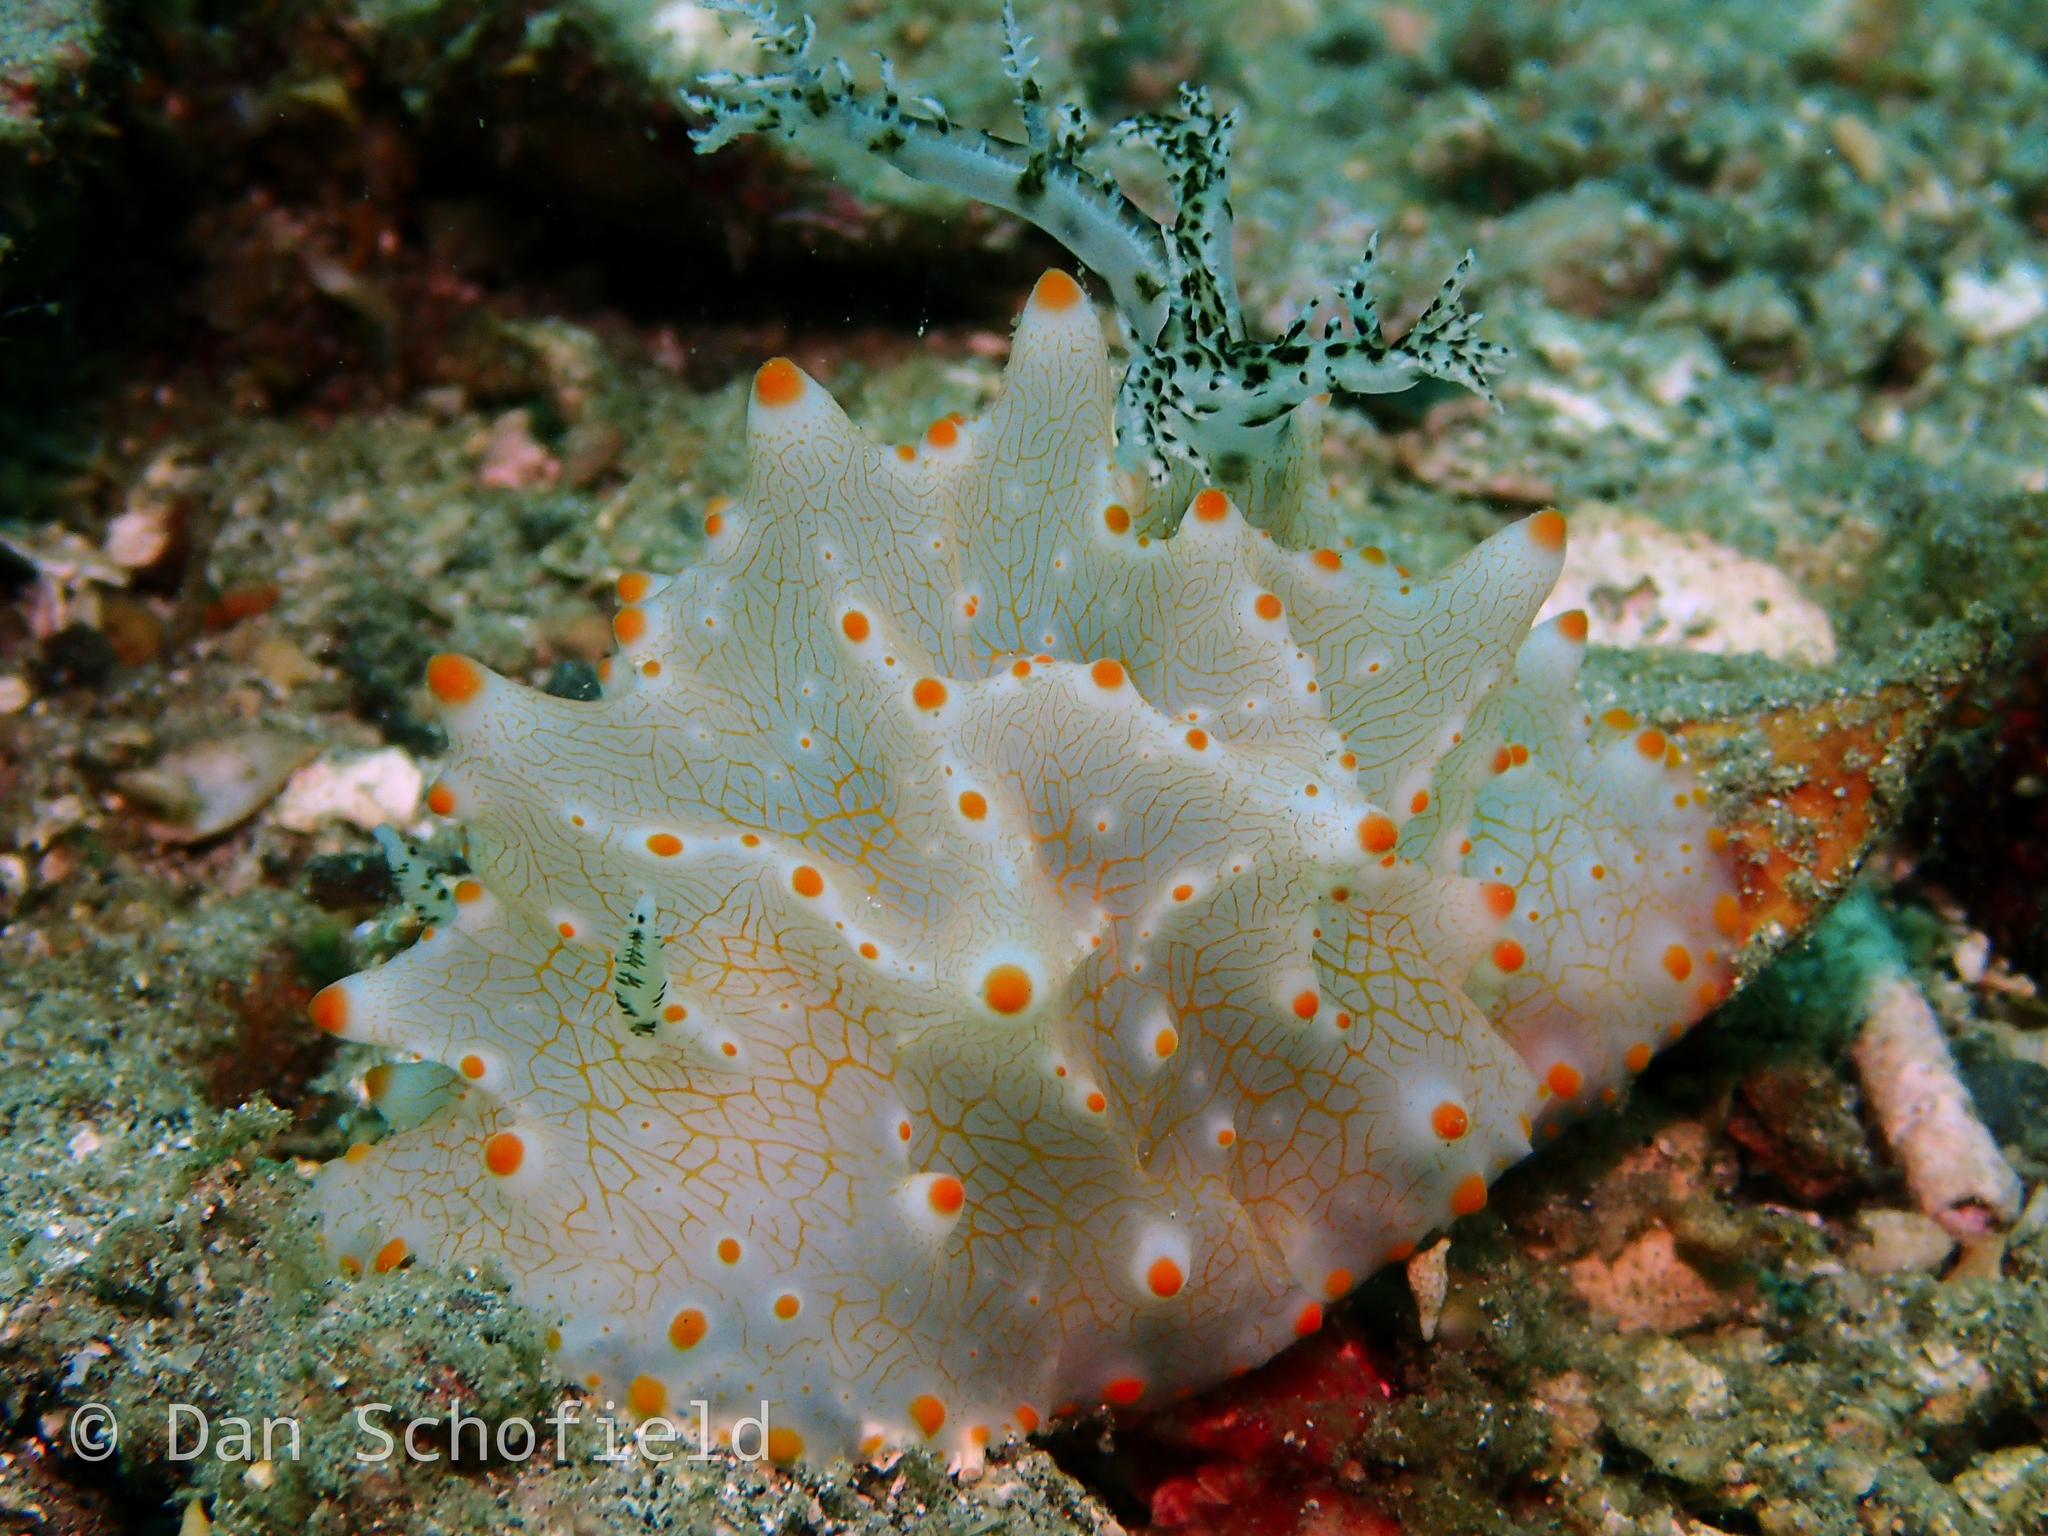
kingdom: Animalia
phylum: Mollusca
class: Gastropoda
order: Nudibranchia
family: Discodorididae
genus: Halgerda
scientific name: Halgerda batangas
